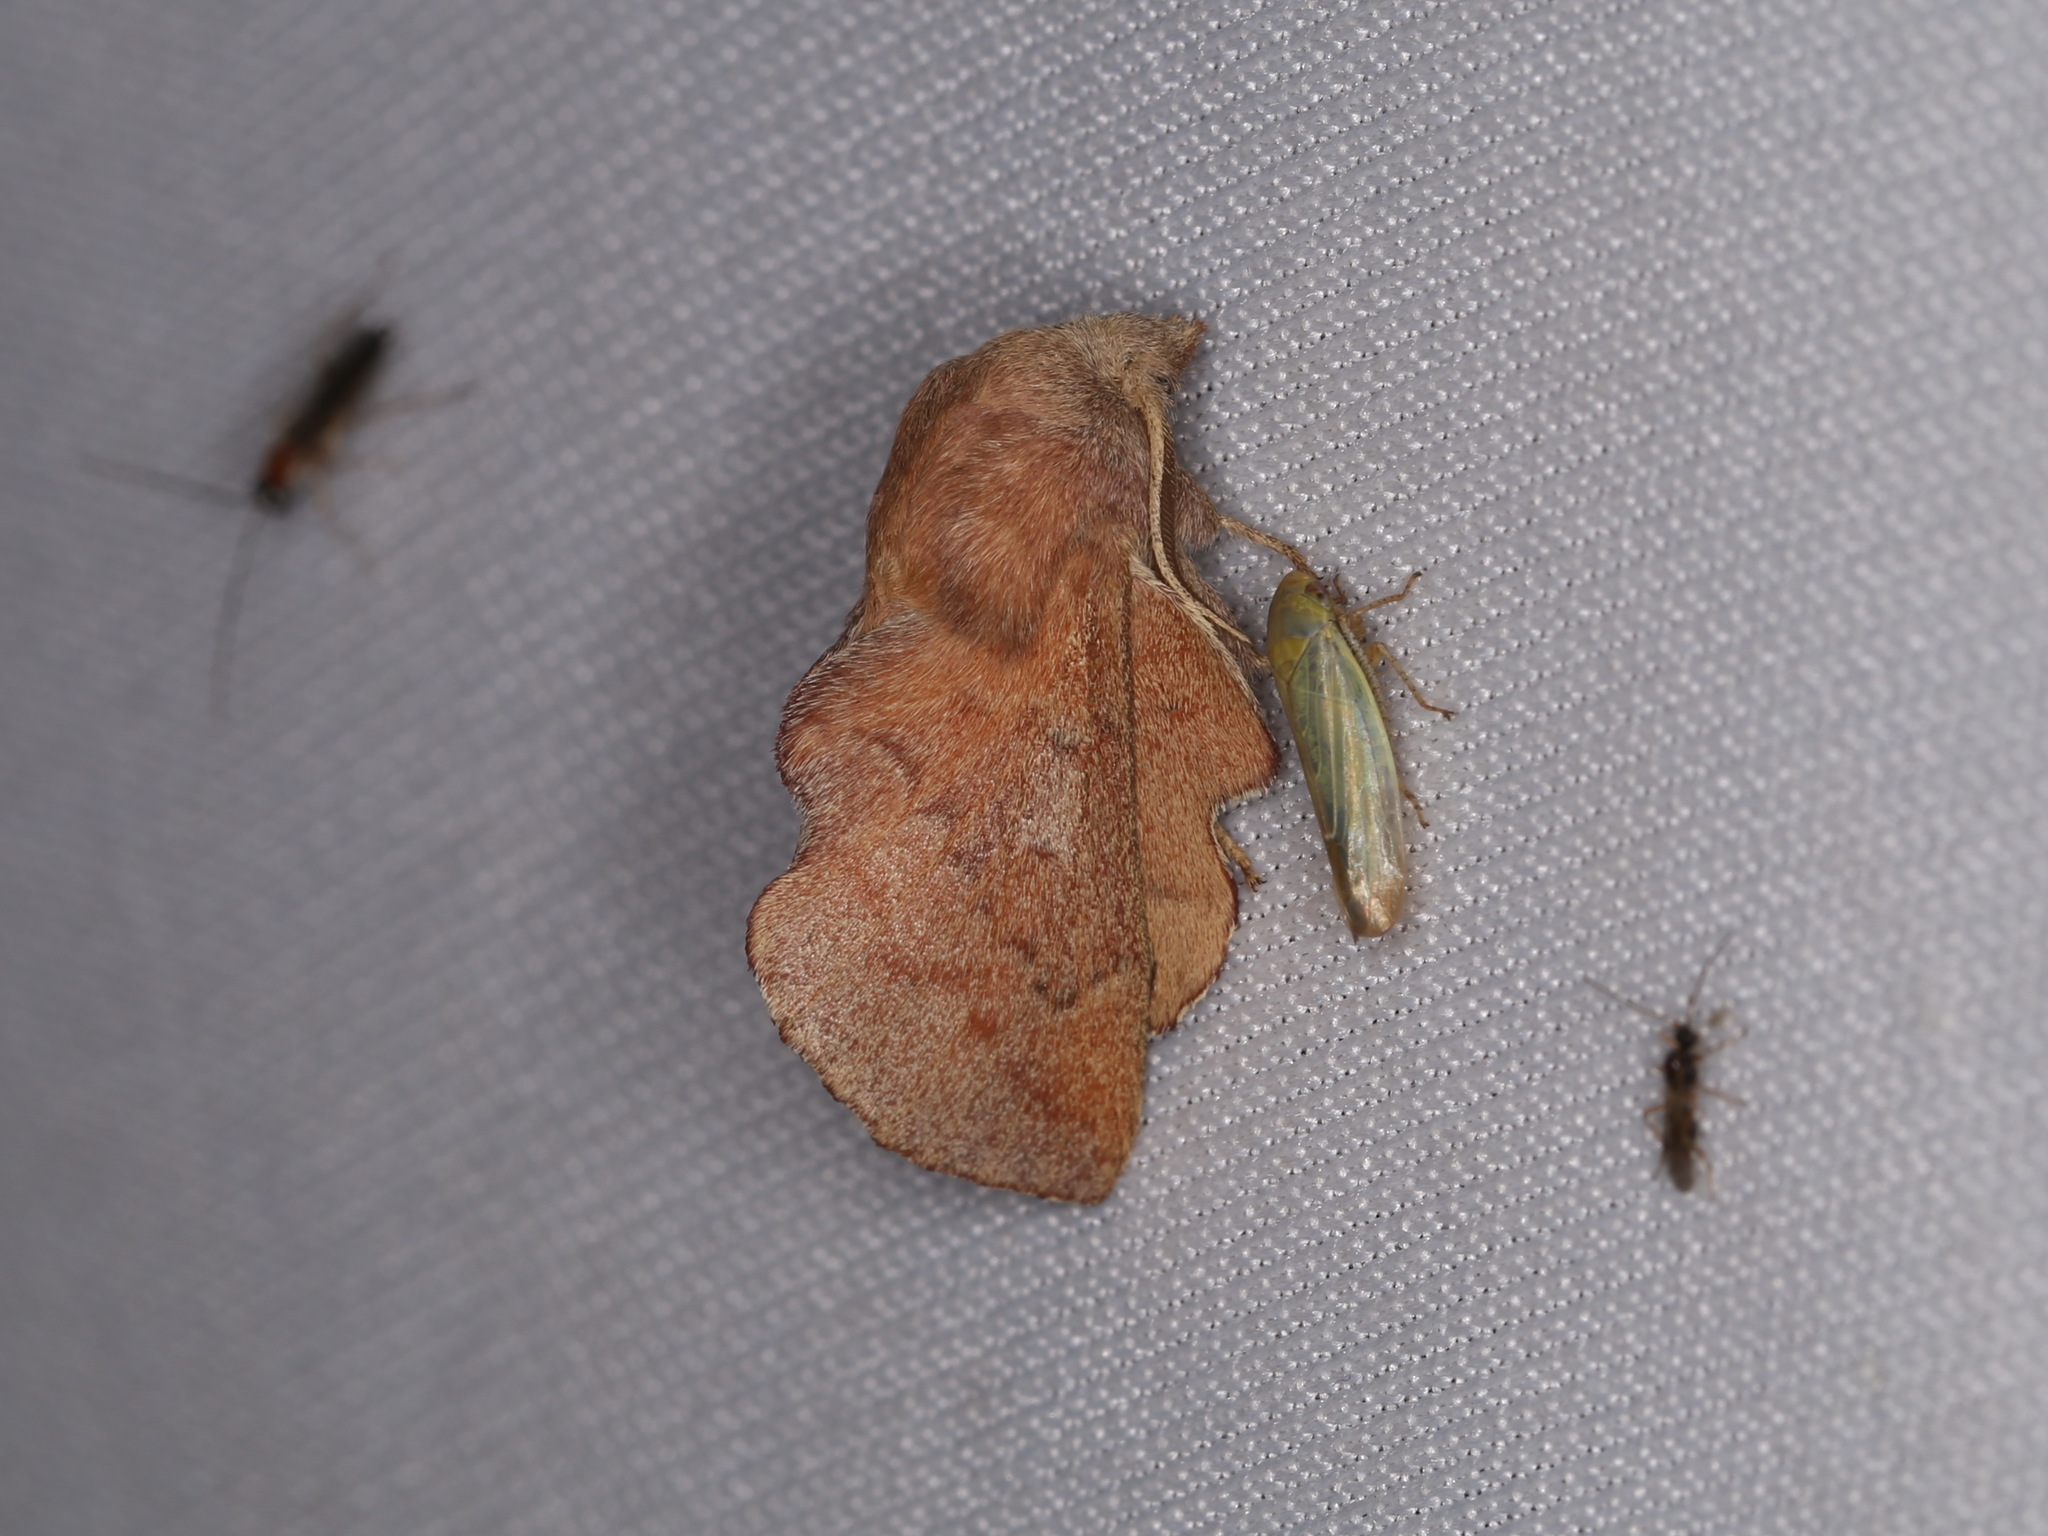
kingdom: Animalia
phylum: Arthropoda
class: Insecta
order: Lepidoptera
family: Lasiocampidae
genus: Phyllodesma
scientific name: Phyllodesma americana
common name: American lappet moth
